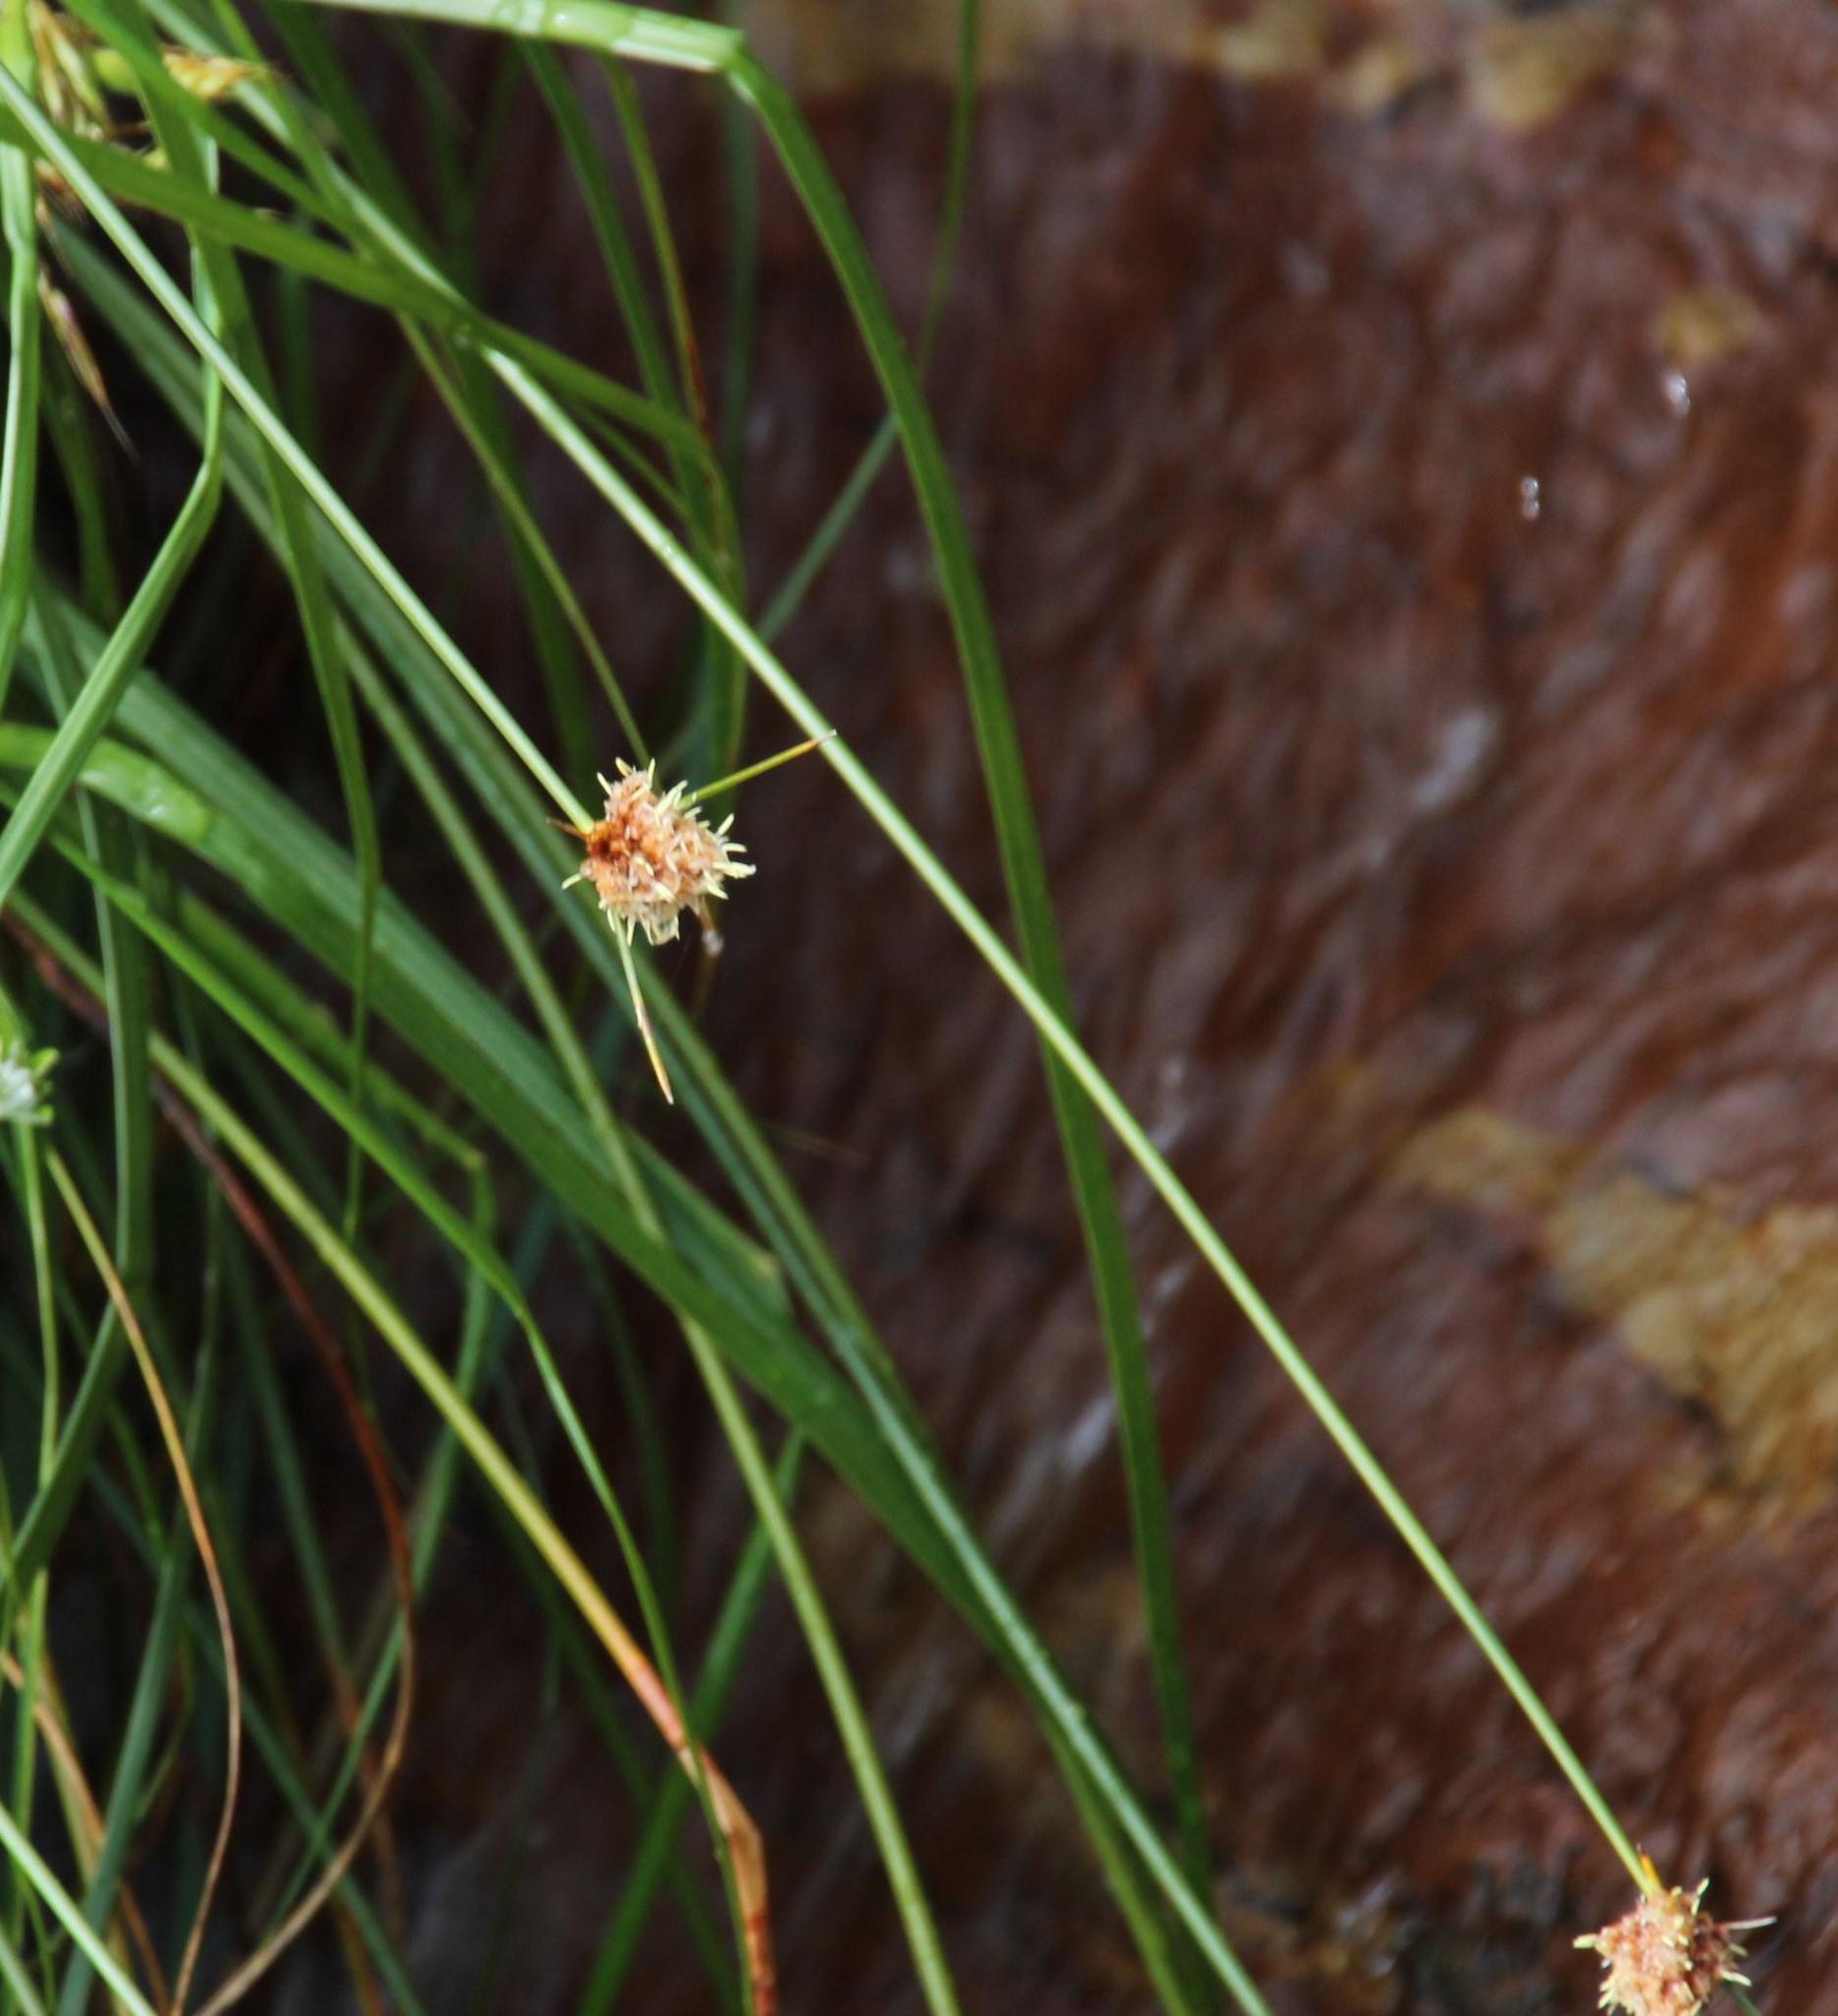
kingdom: Plantae
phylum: Tracheophyta
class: Liliopsida
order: Poales
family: Cyperaceae
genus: Ficinia
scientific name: Ficinia brevifolia
